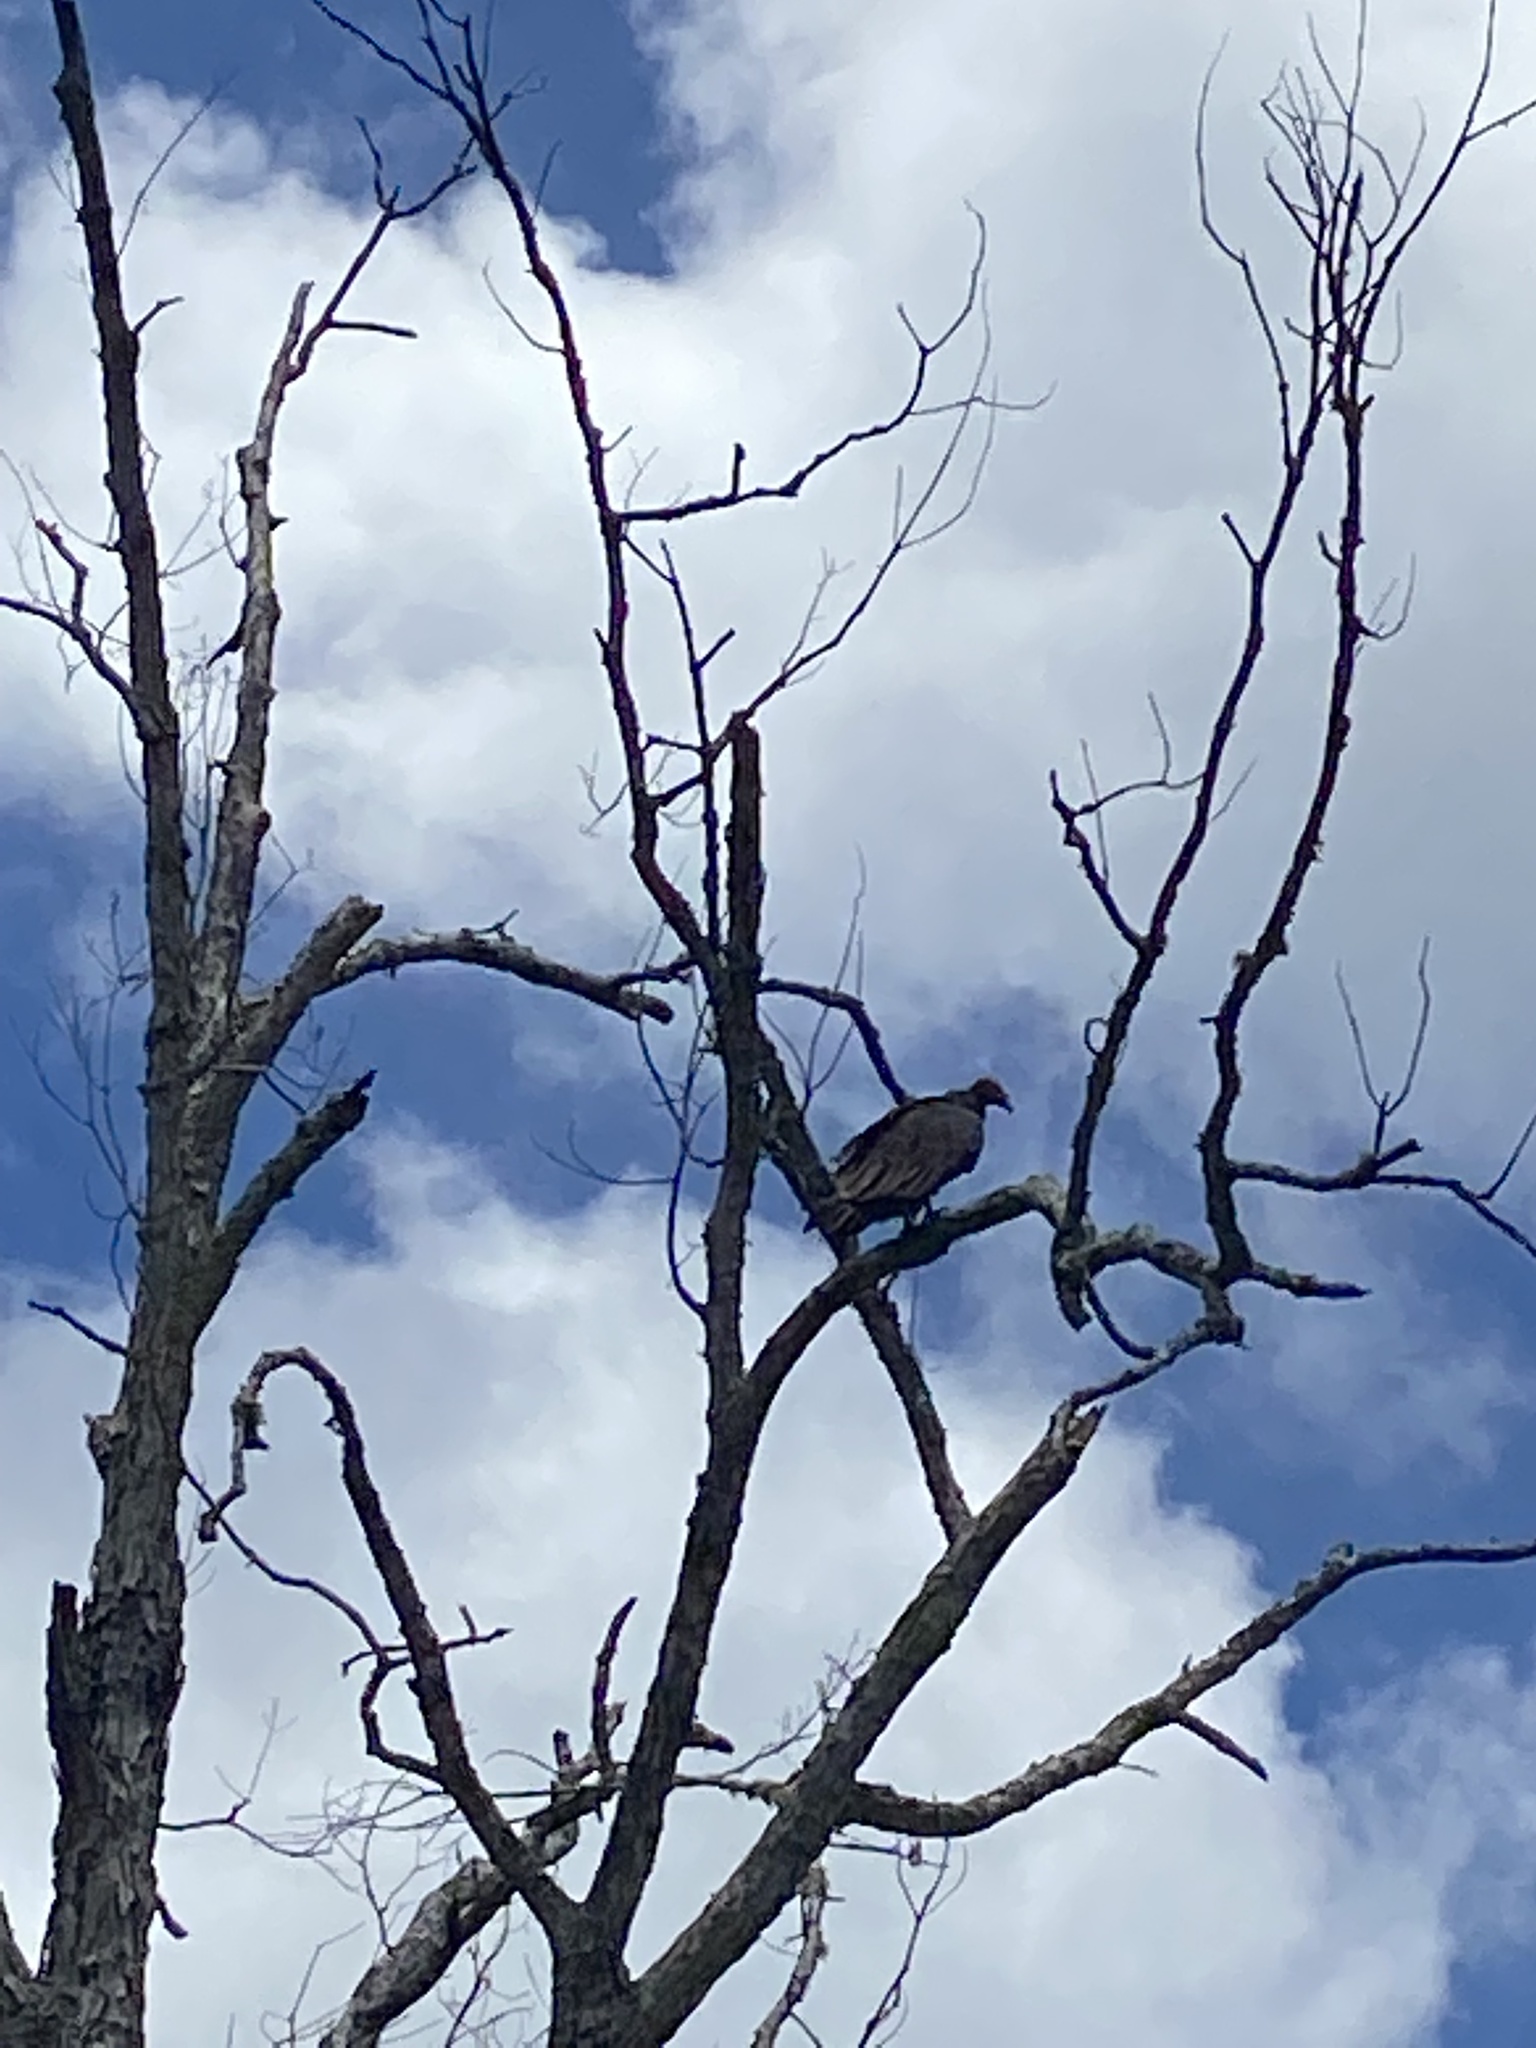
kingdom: Animalia
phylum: Chordata
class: Aves
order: Accipitriformes
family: Cathartidae
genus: Cathartes
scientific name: Cathartes aura
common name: Turkey vulture
